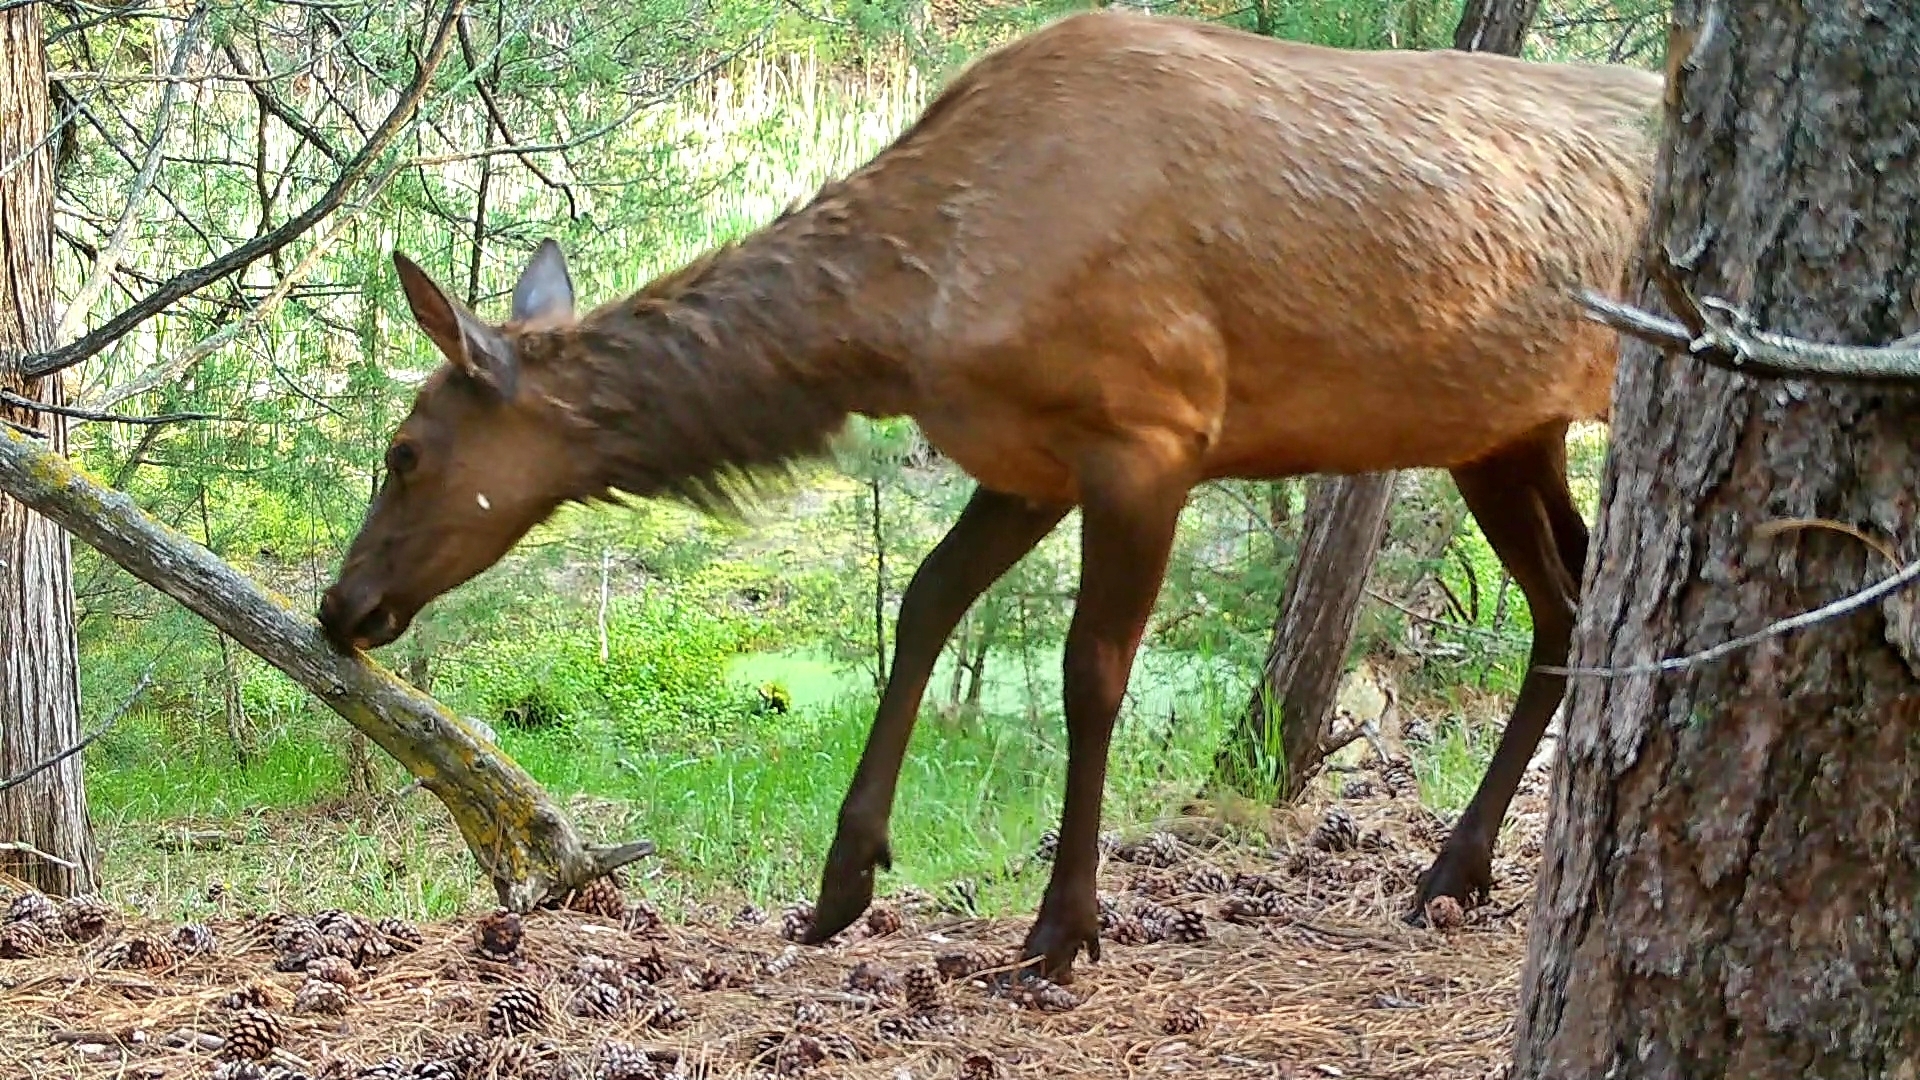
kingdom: Animalia
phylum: Chordata
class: Mammalia
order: Artiodactyla
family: Cervidae
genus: Cervus
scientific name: Cervus elaphus
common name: Red deer
